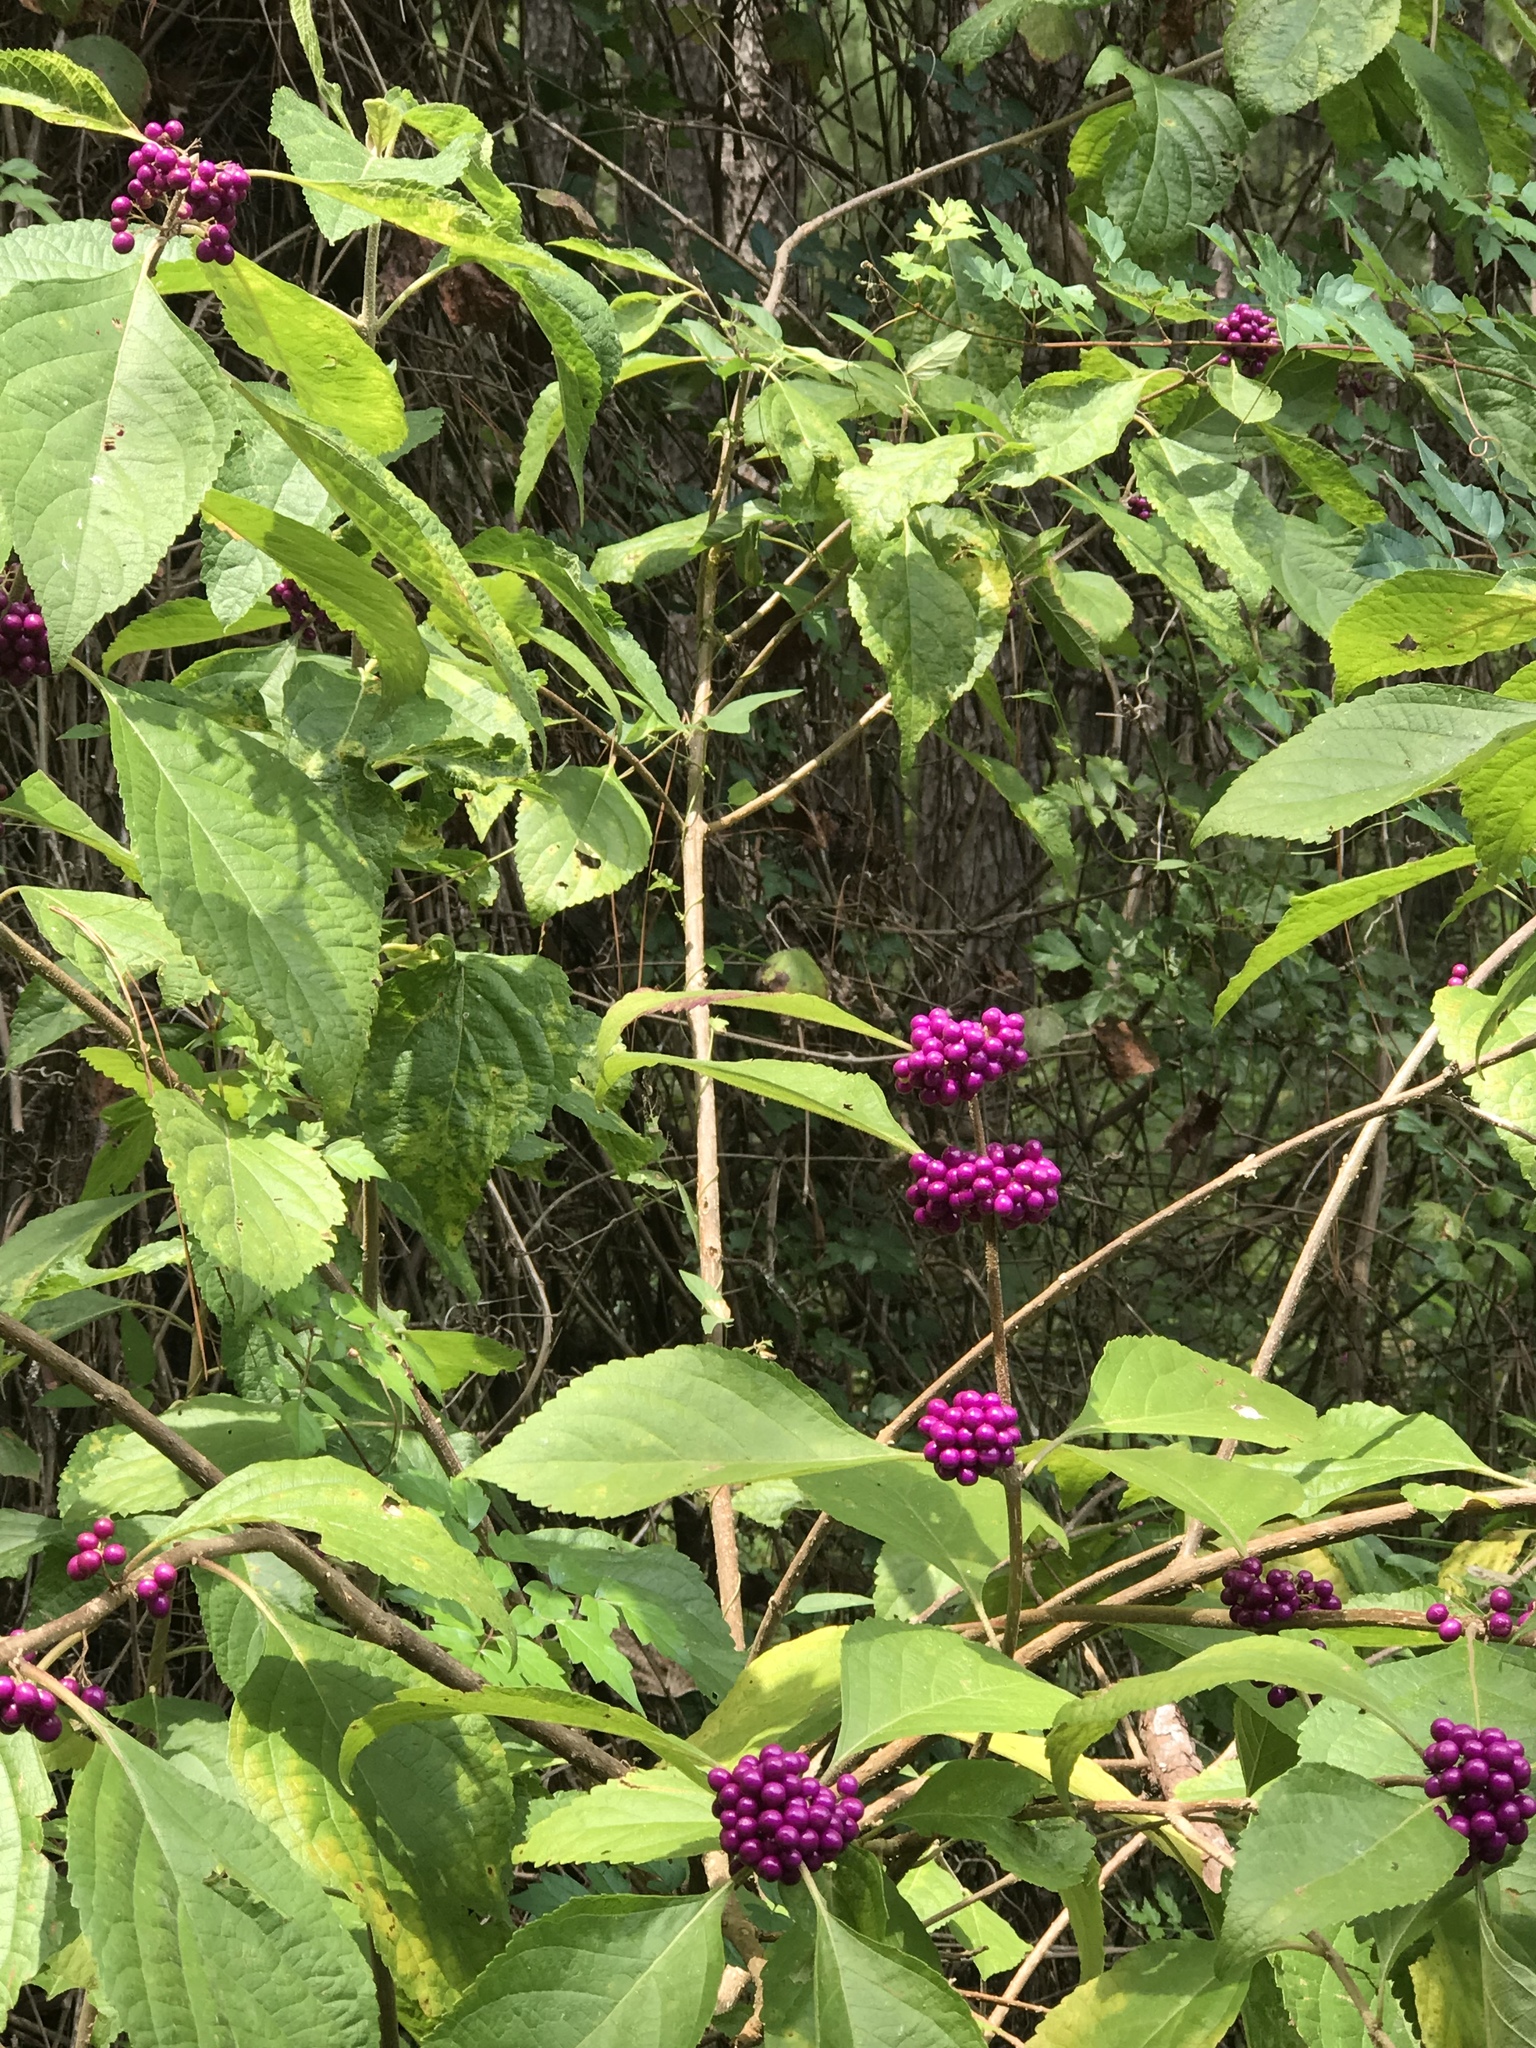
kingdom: Plantae
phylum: Tracheophyta
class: Magnoliopsida
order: Lamiales
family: Lamiaceae
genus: Callicarpa
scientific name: Callicarpa americana
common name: American beautyberry
